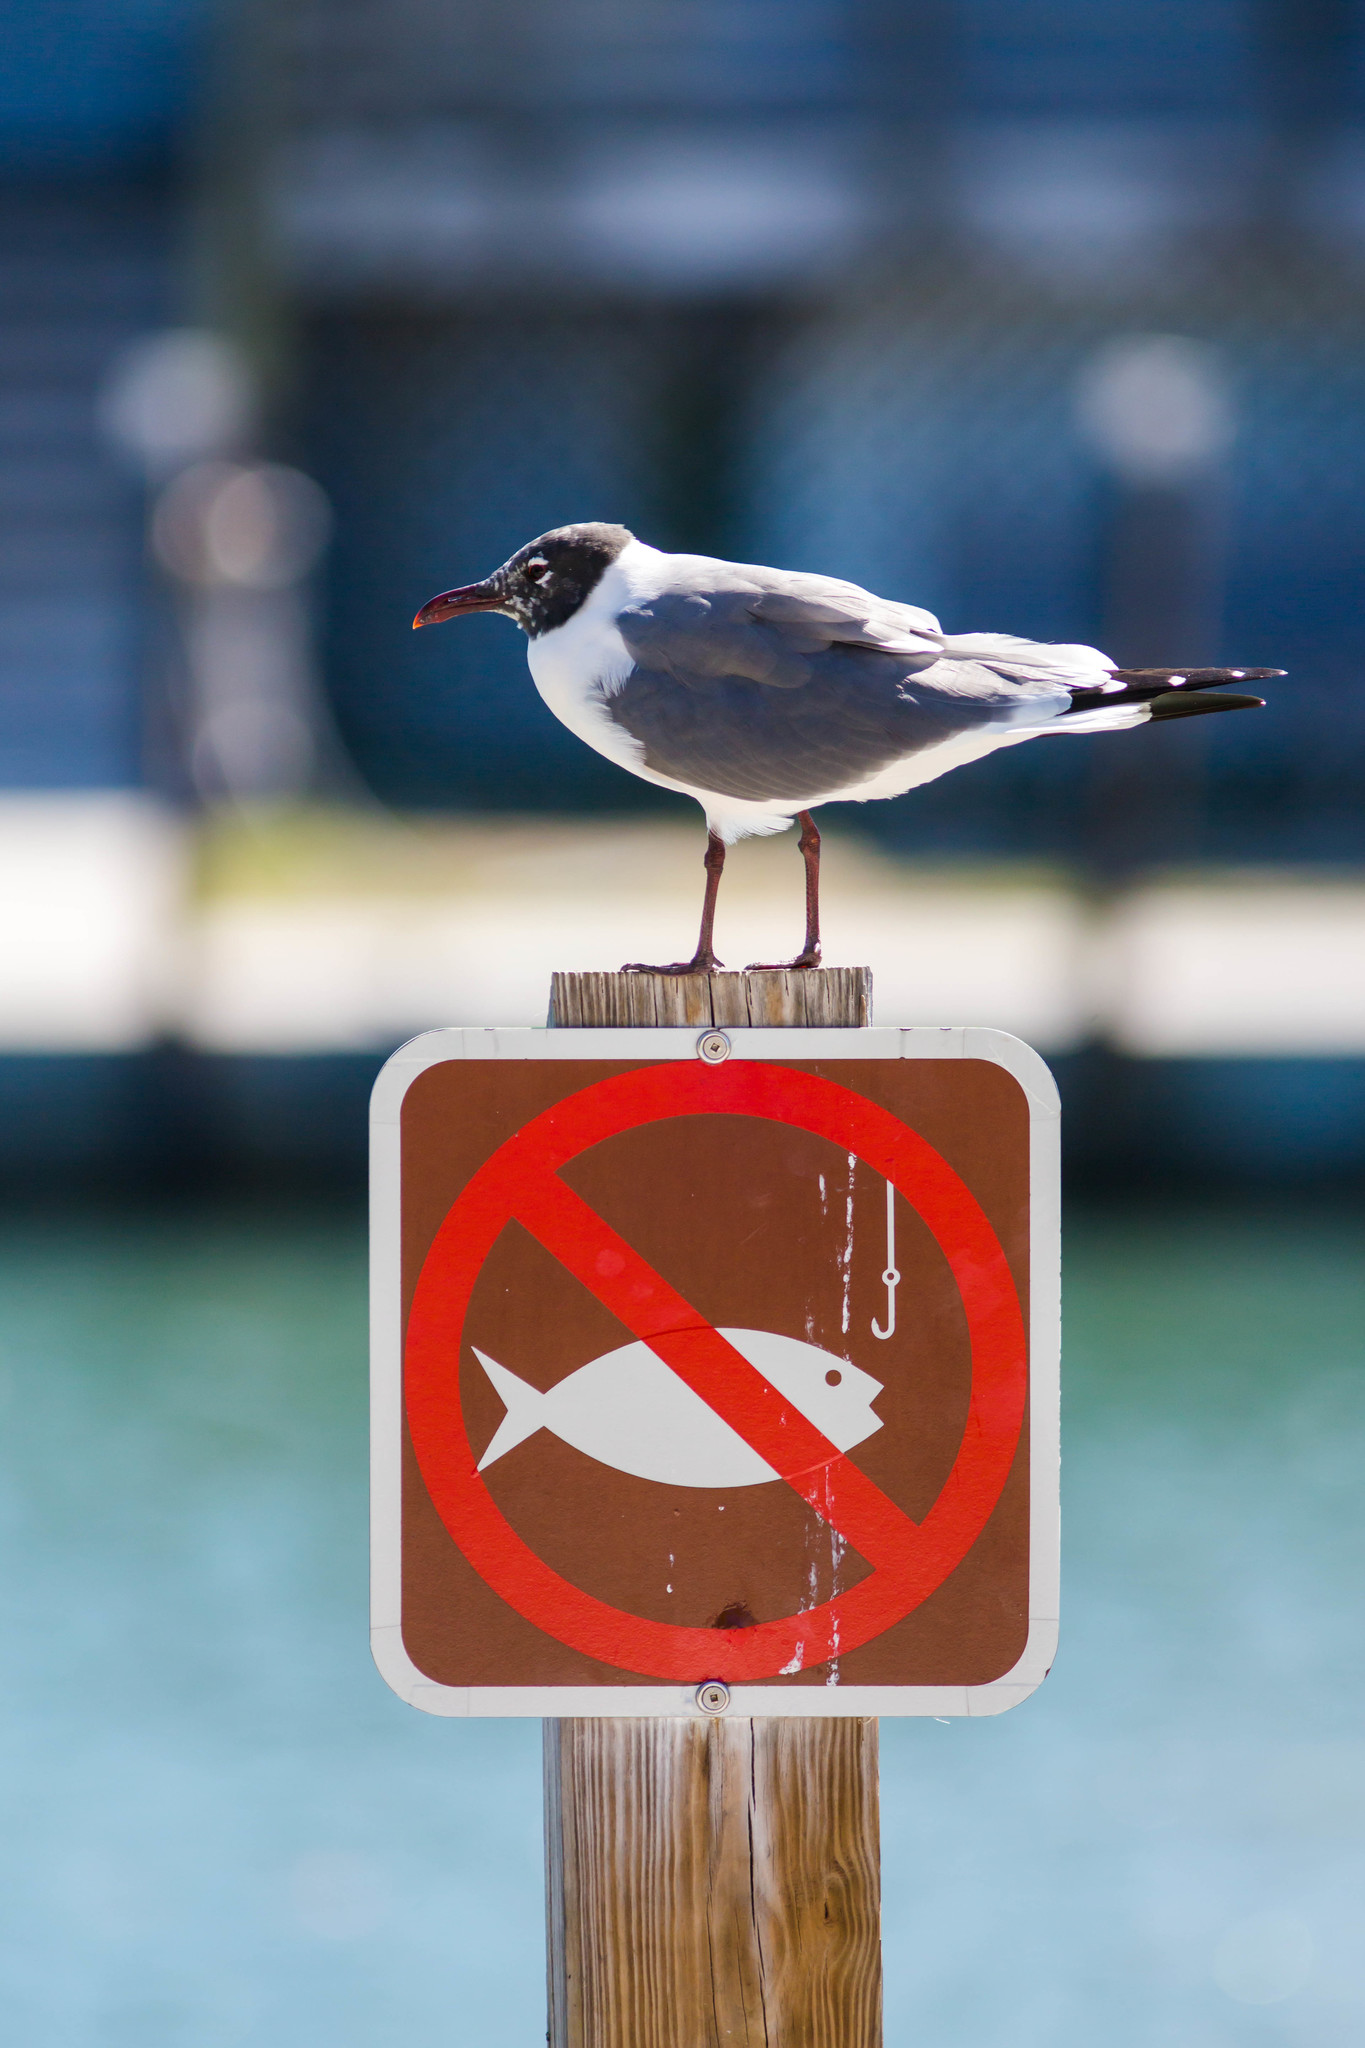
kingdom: Animalia
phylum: Chordata
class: Aves
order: Charadriiformes
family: Laridae
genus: Leucophaeus
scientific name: Leucophaeus atricilla
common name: Laughing gull
